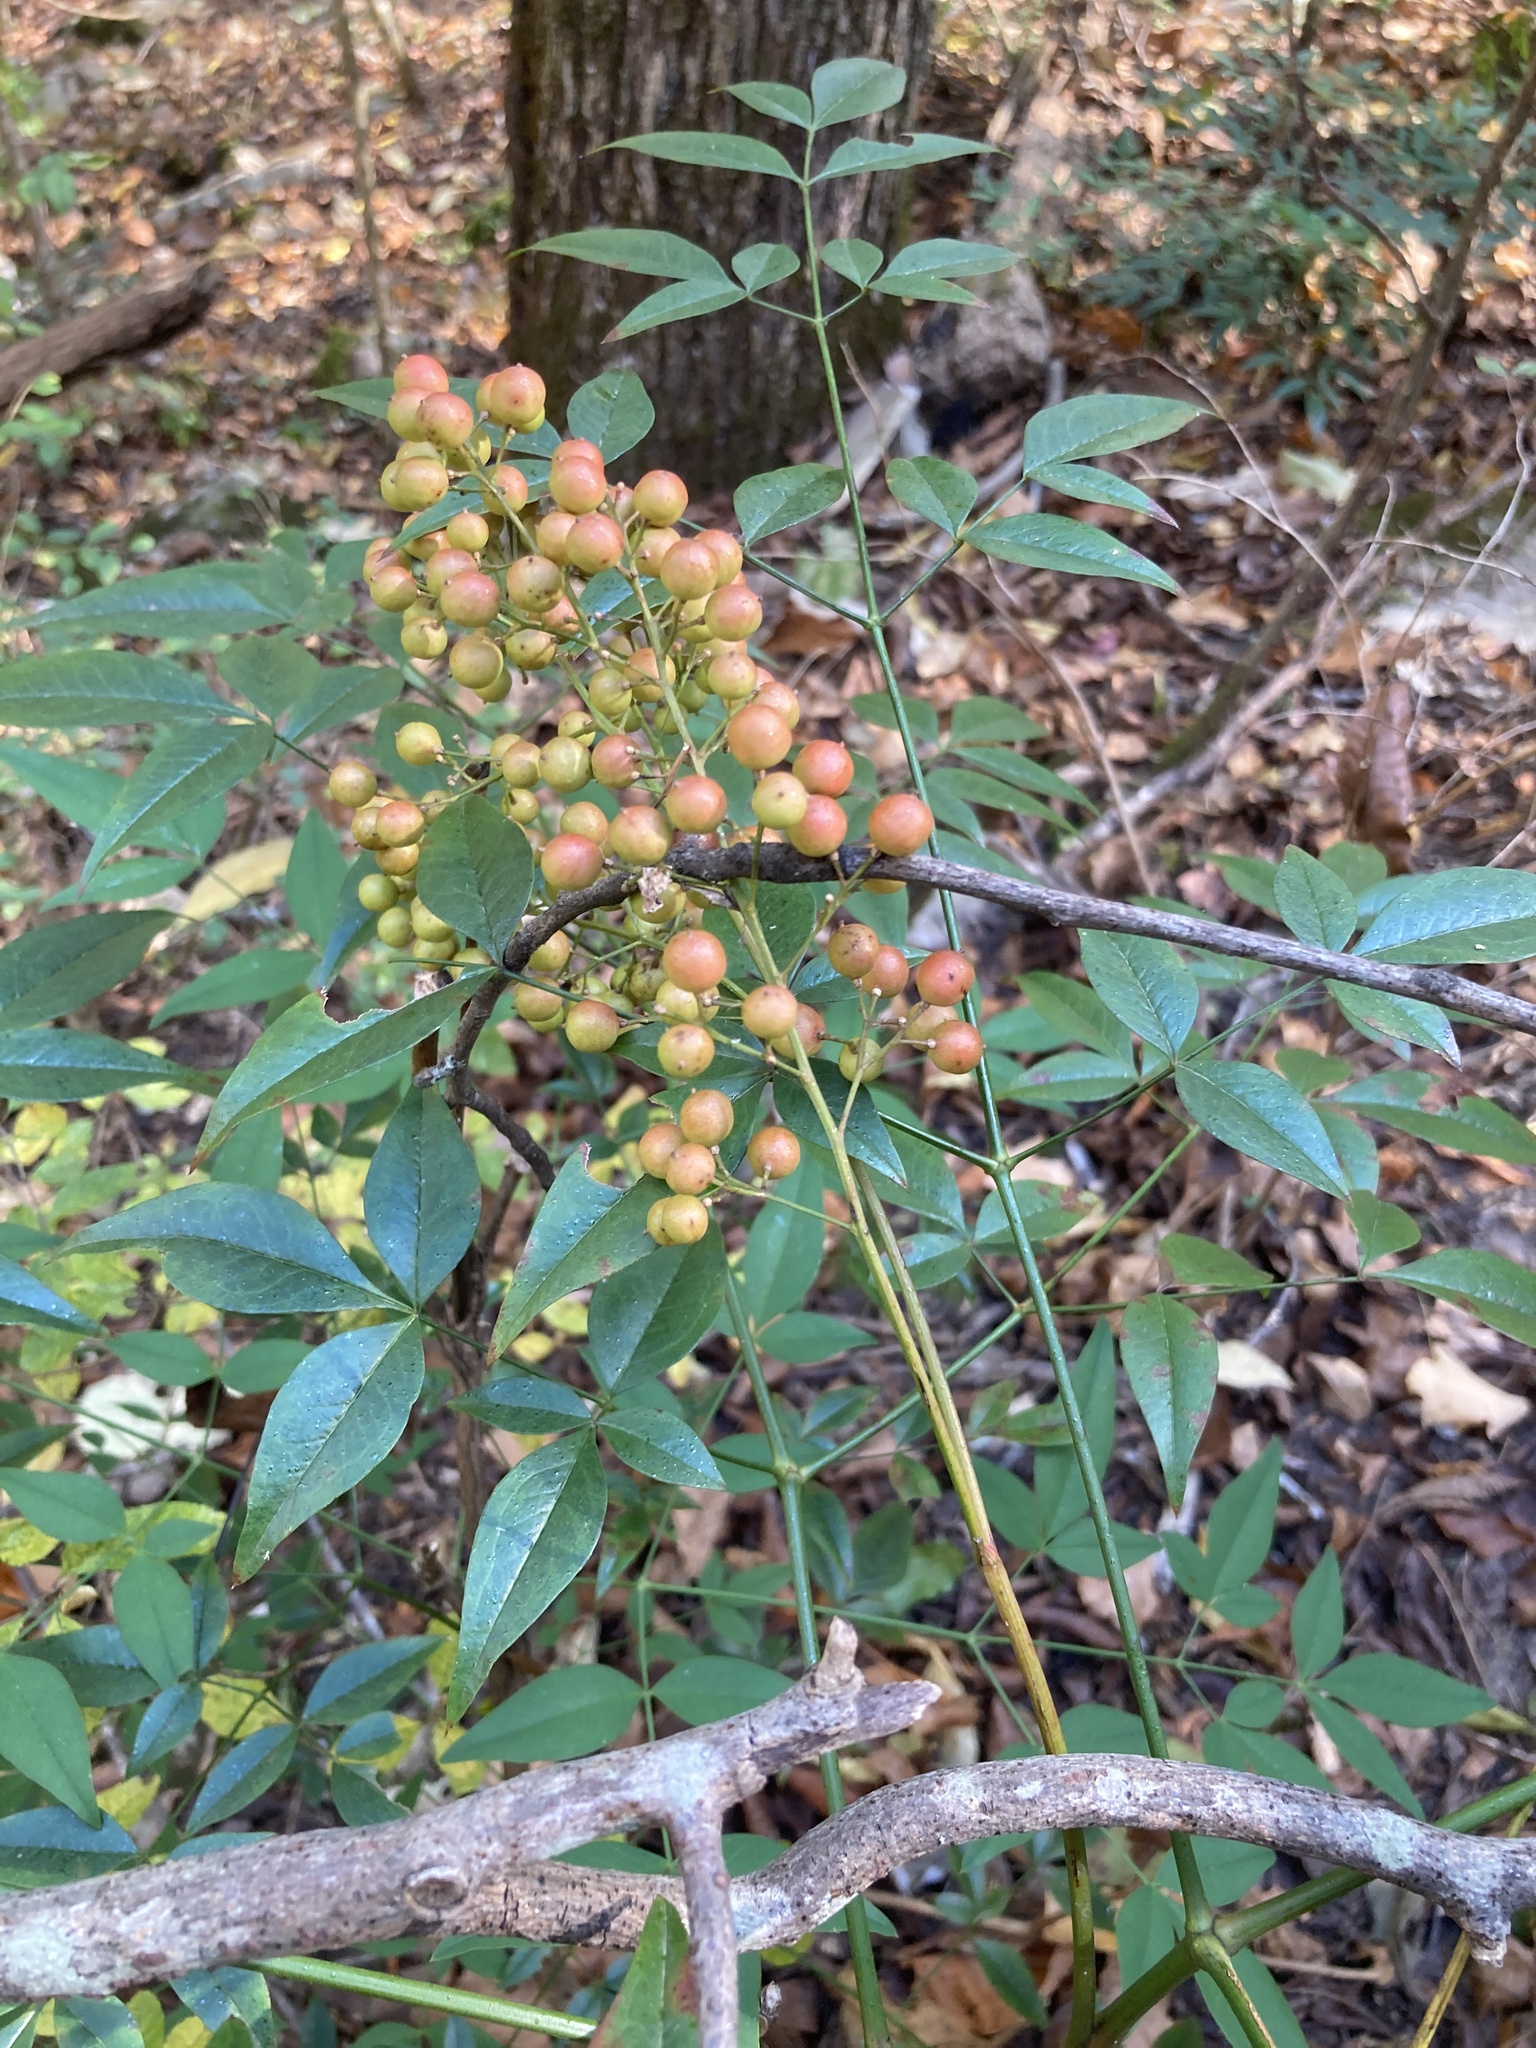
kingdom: Plantae
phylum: Tracheophyta
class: Magnoliopsida
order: Ranunculales
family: Berberidaceae
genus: Nandina
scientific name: Nandina domestica
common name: Sacred bamboo
